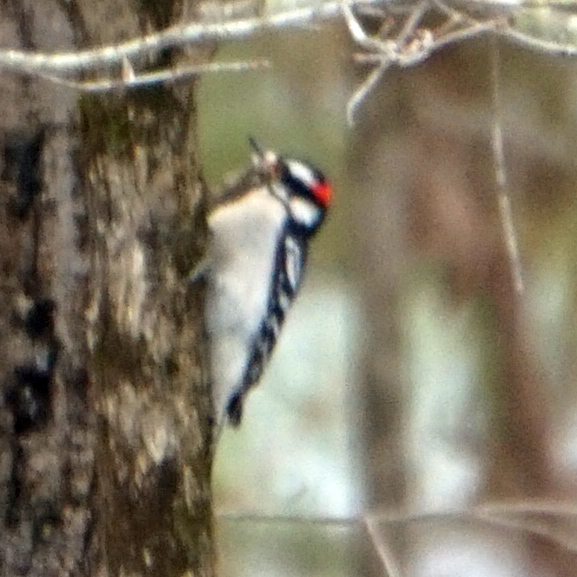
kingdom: Animalia
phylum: Chordata
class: Aves
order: Piciformes
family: Picidae
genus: Dryobates
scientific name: Dryobates pubescens
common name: Downy woodpecker
